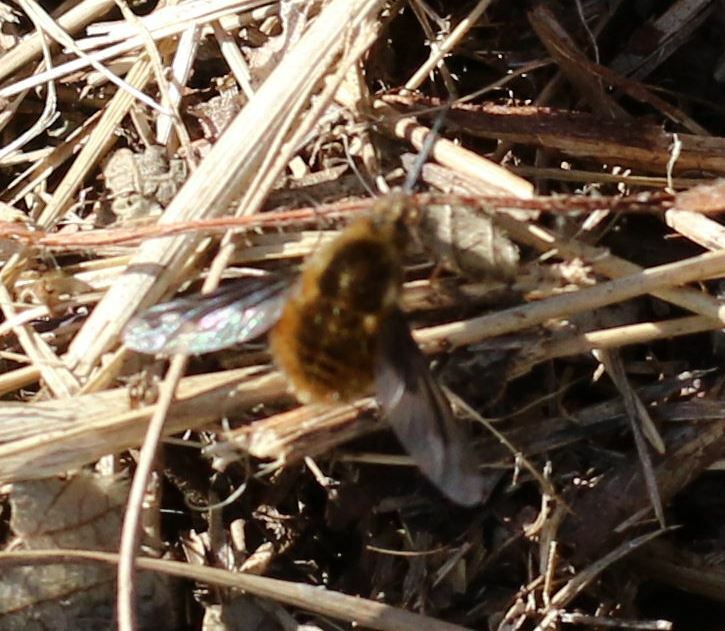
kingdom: Animalia
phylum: Arthropoda
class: Insecta
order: Diptera
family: Bombyliidae
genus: Bombylius
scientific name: Bombylius major
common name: Bee fly
